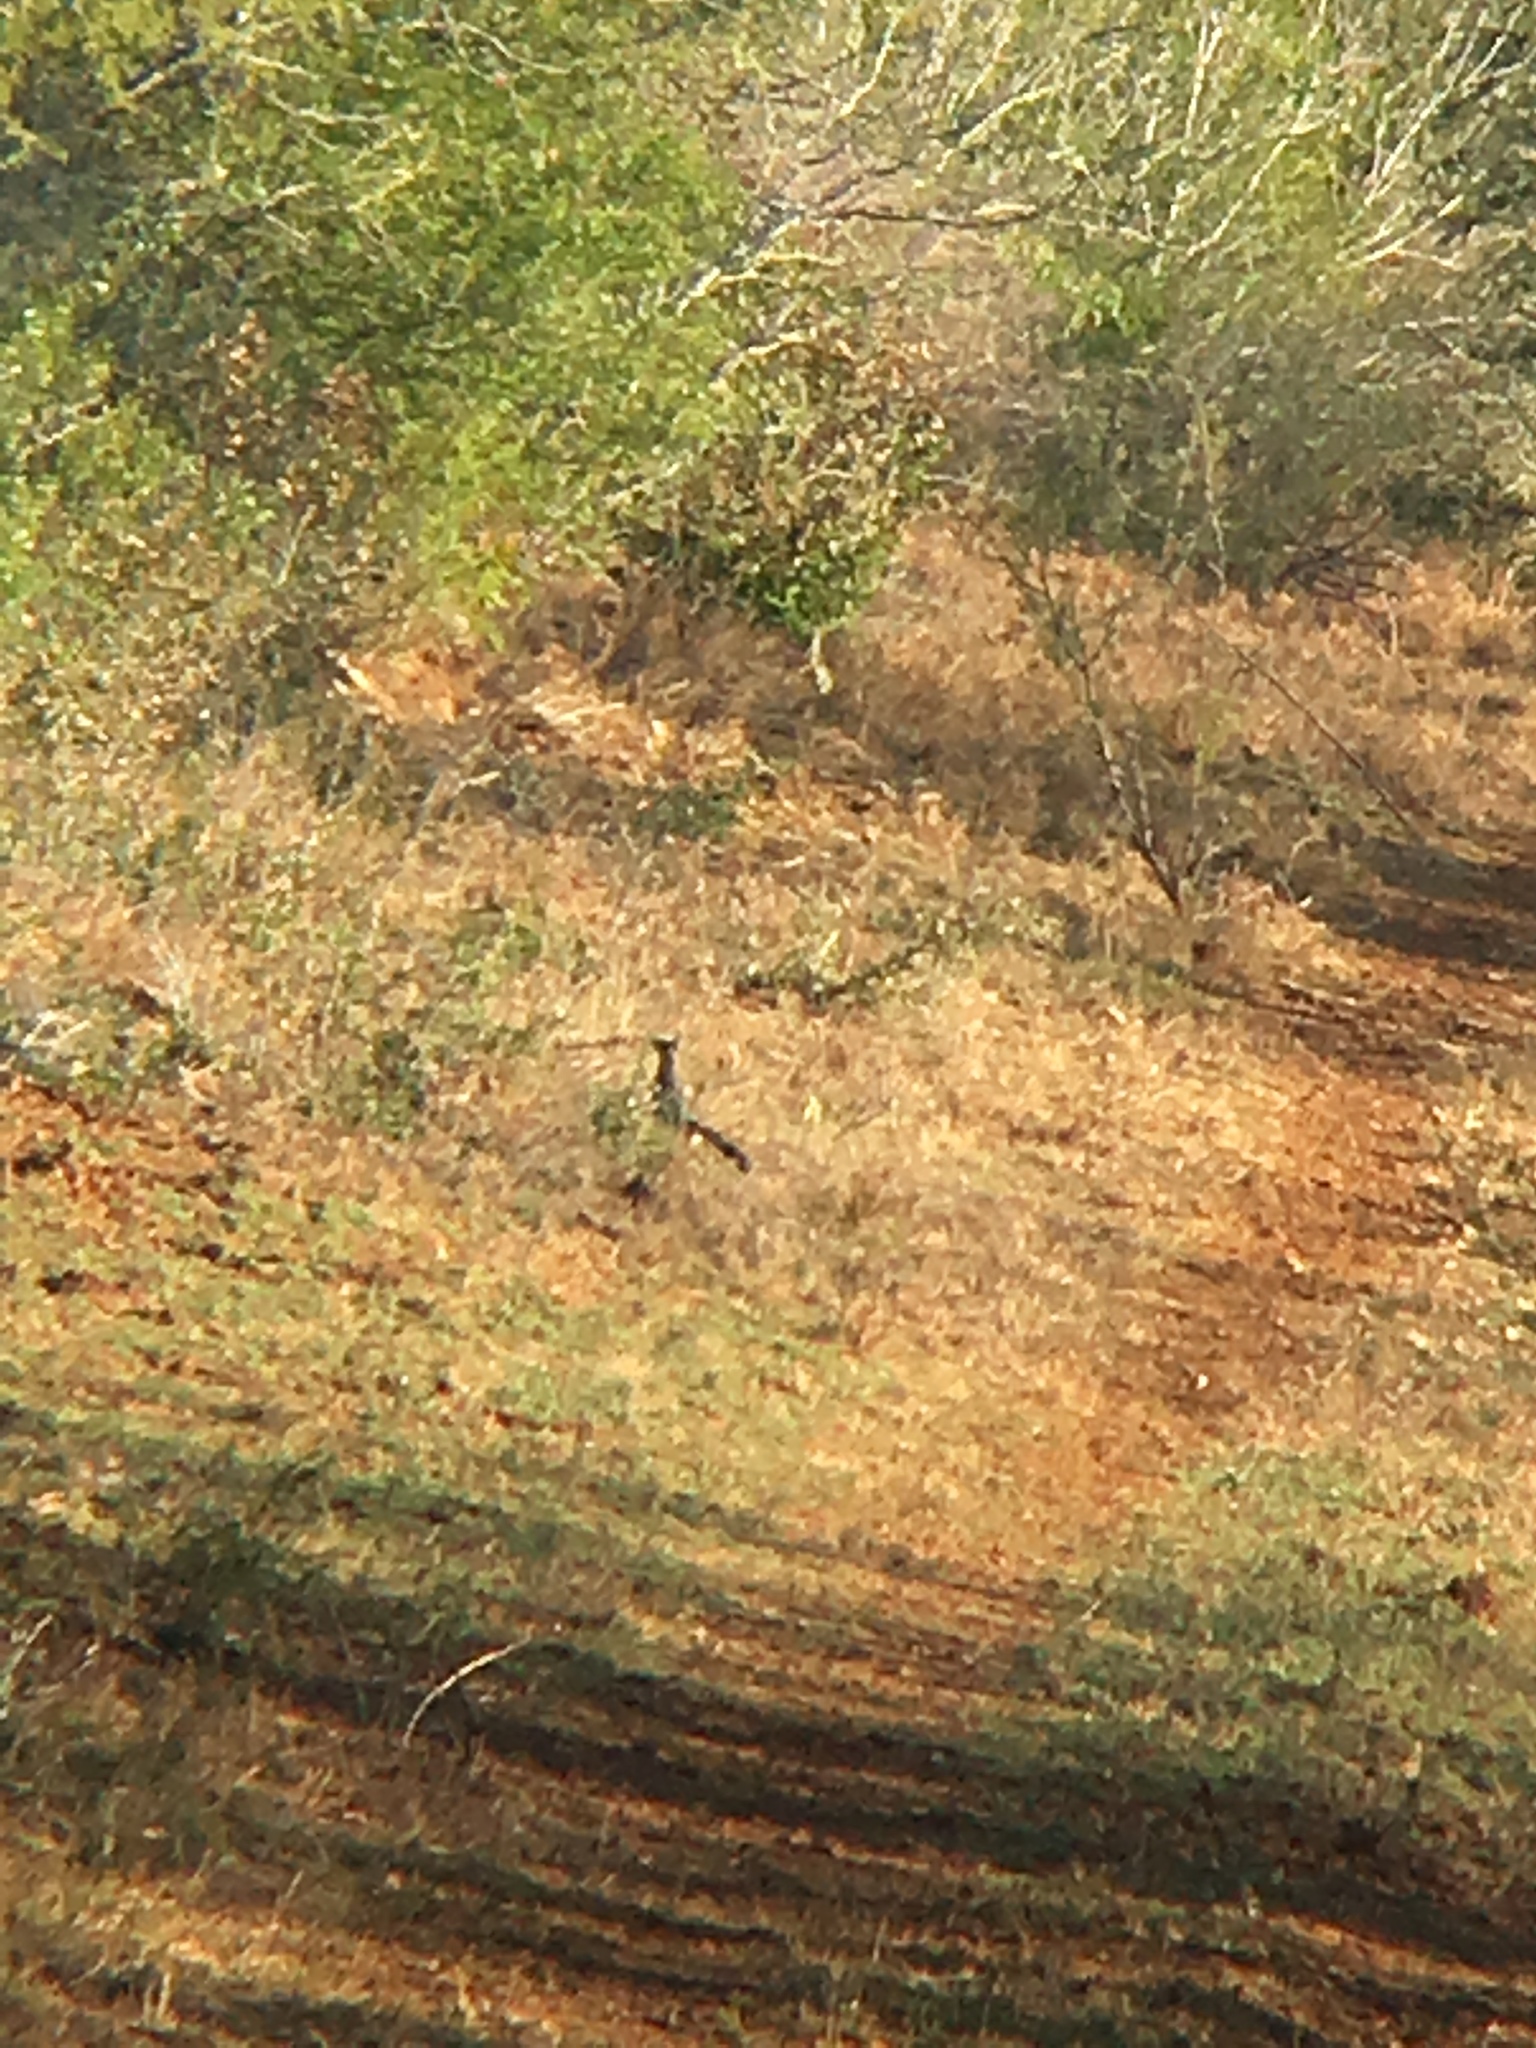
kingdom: Animalia
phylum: Chordata
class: Aves
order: Cuculiformes
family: Cuculidae
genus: Geococcyx
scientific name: Geococcyx californianus
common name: Greater roadrunner
